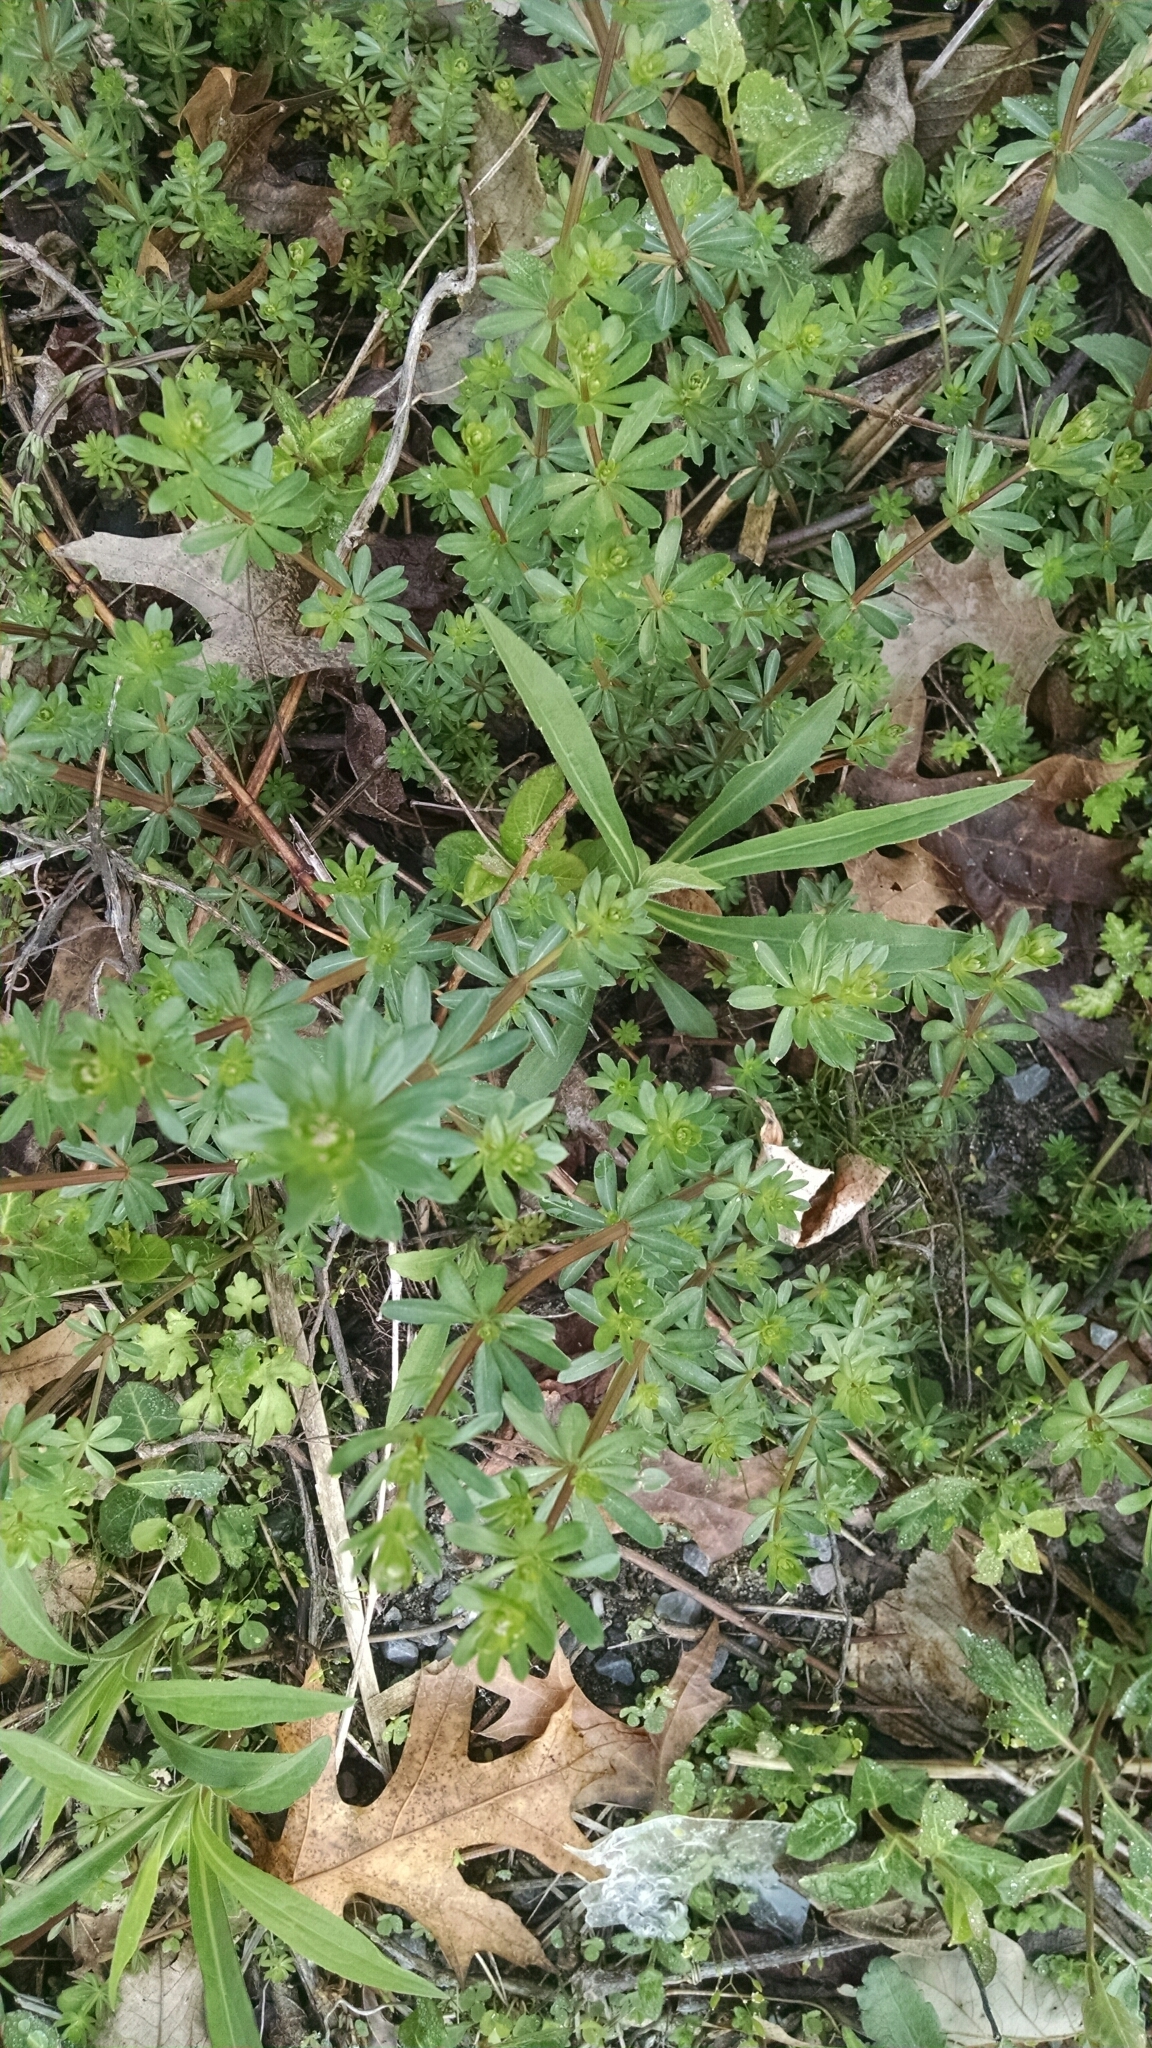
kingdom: Plantae
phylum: Tracheophyta
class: Magnoliopsida
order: Gentianales
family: Rubiaceae
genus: Galium
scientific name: Galium mollugo
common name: Hedge bedstraw
